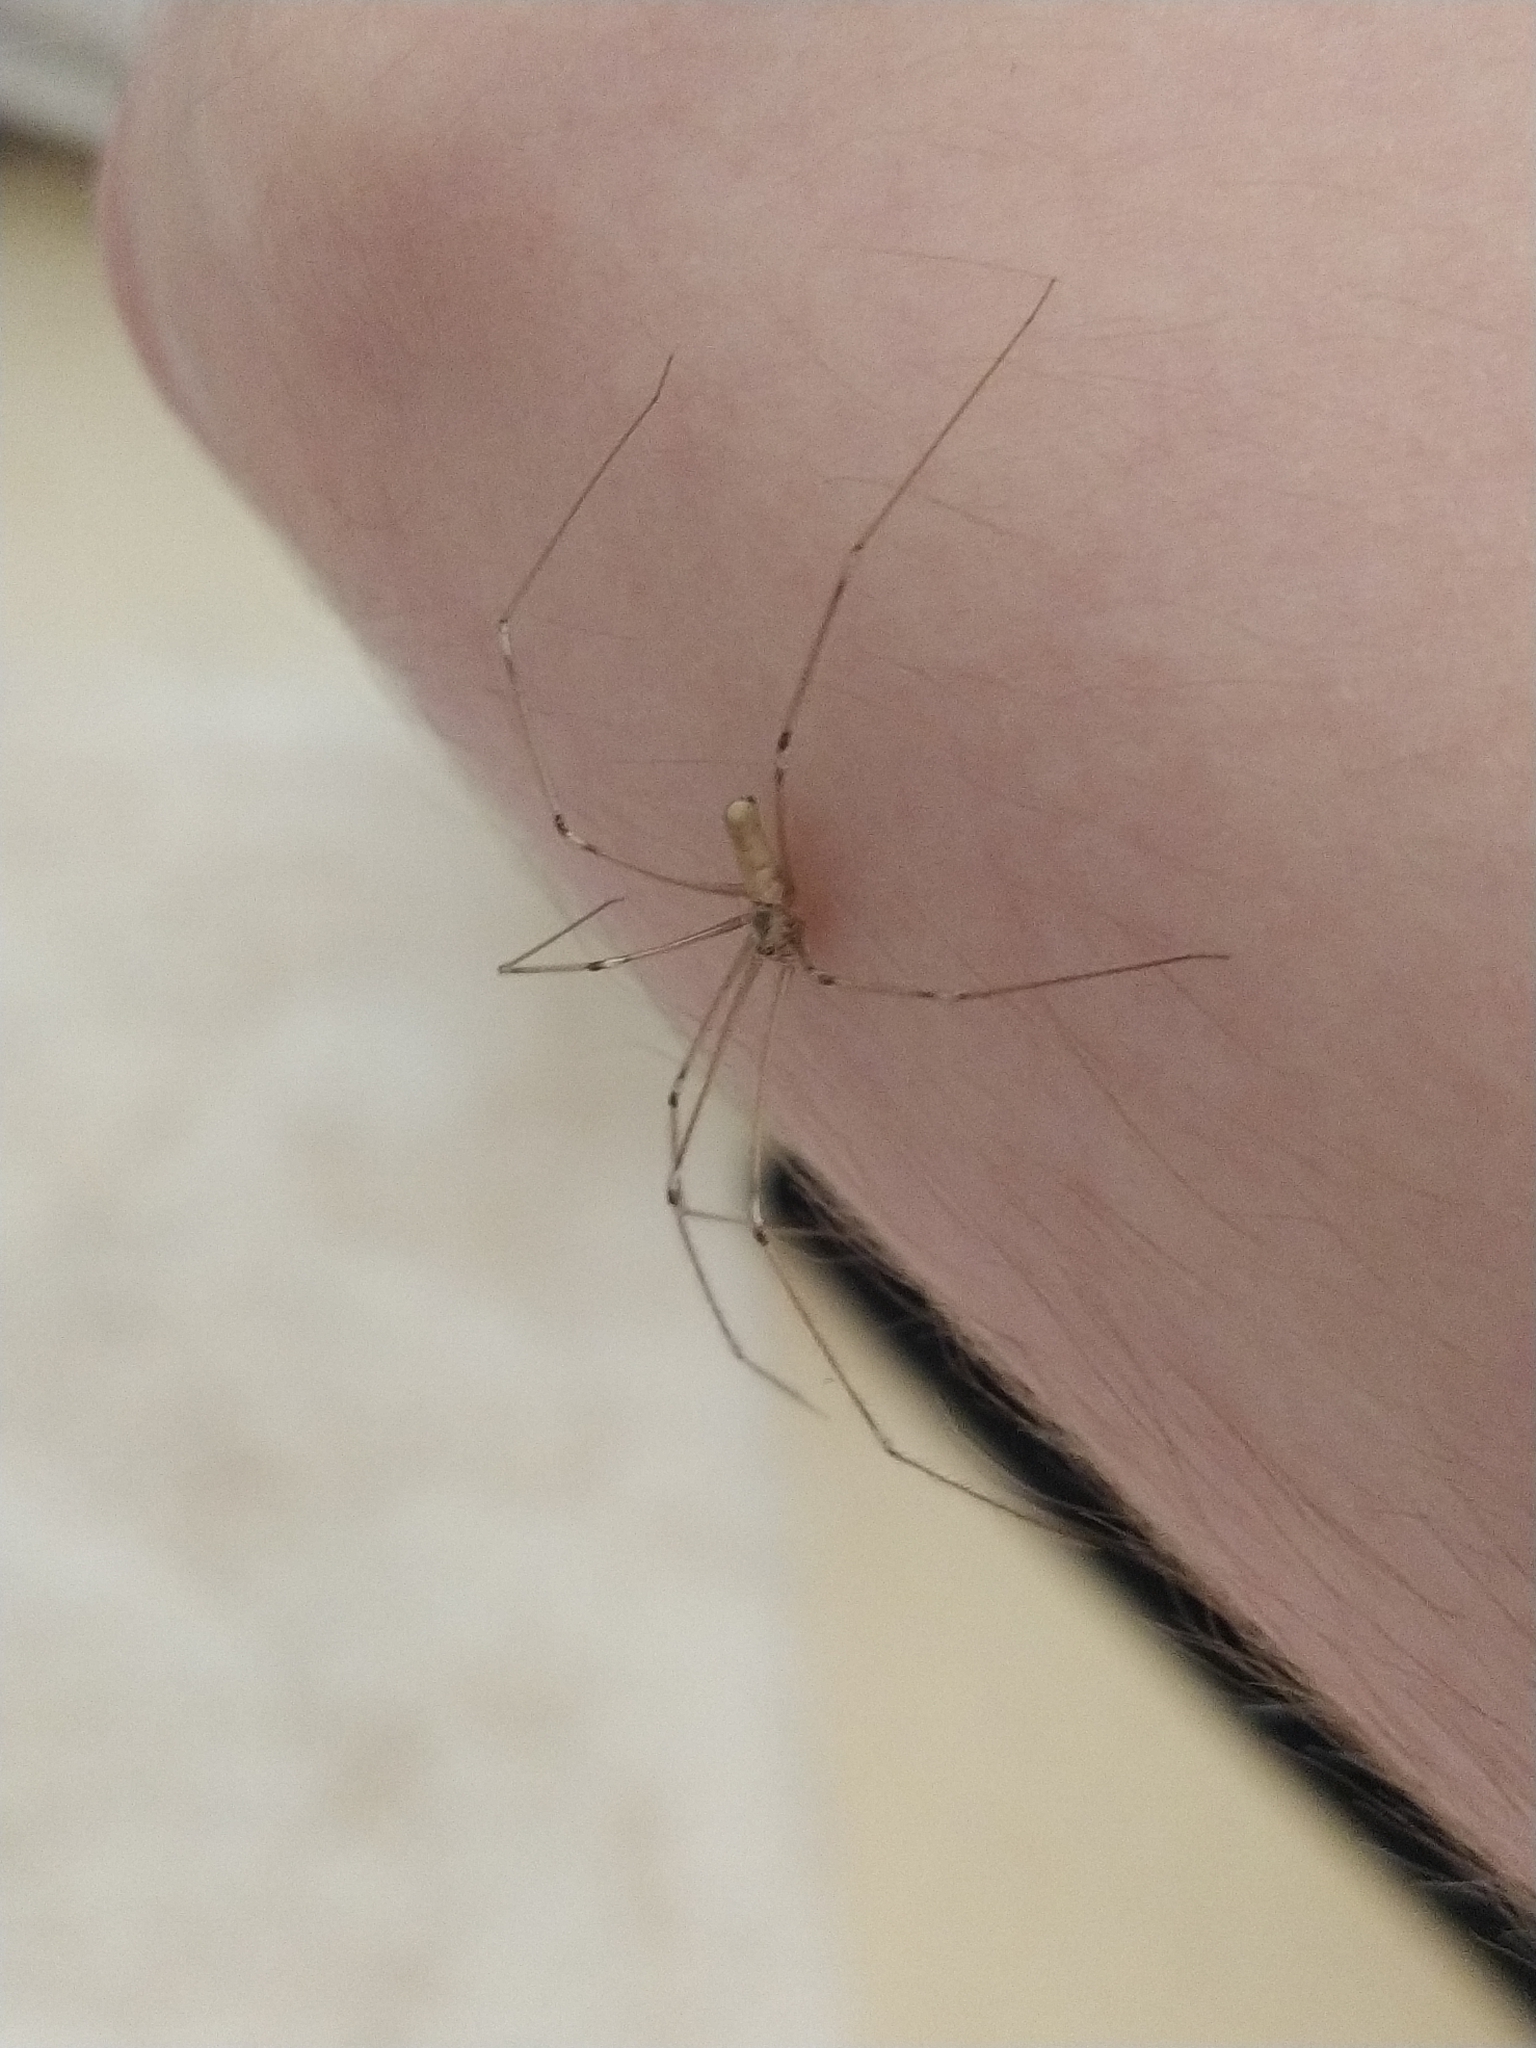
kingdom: Animalia
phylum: Arthropoda
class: Arachnida
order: Araneae
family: Pholcidae
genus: Pholcus
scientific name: Pholcus phalangioides
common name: Longbodied cellar spider
